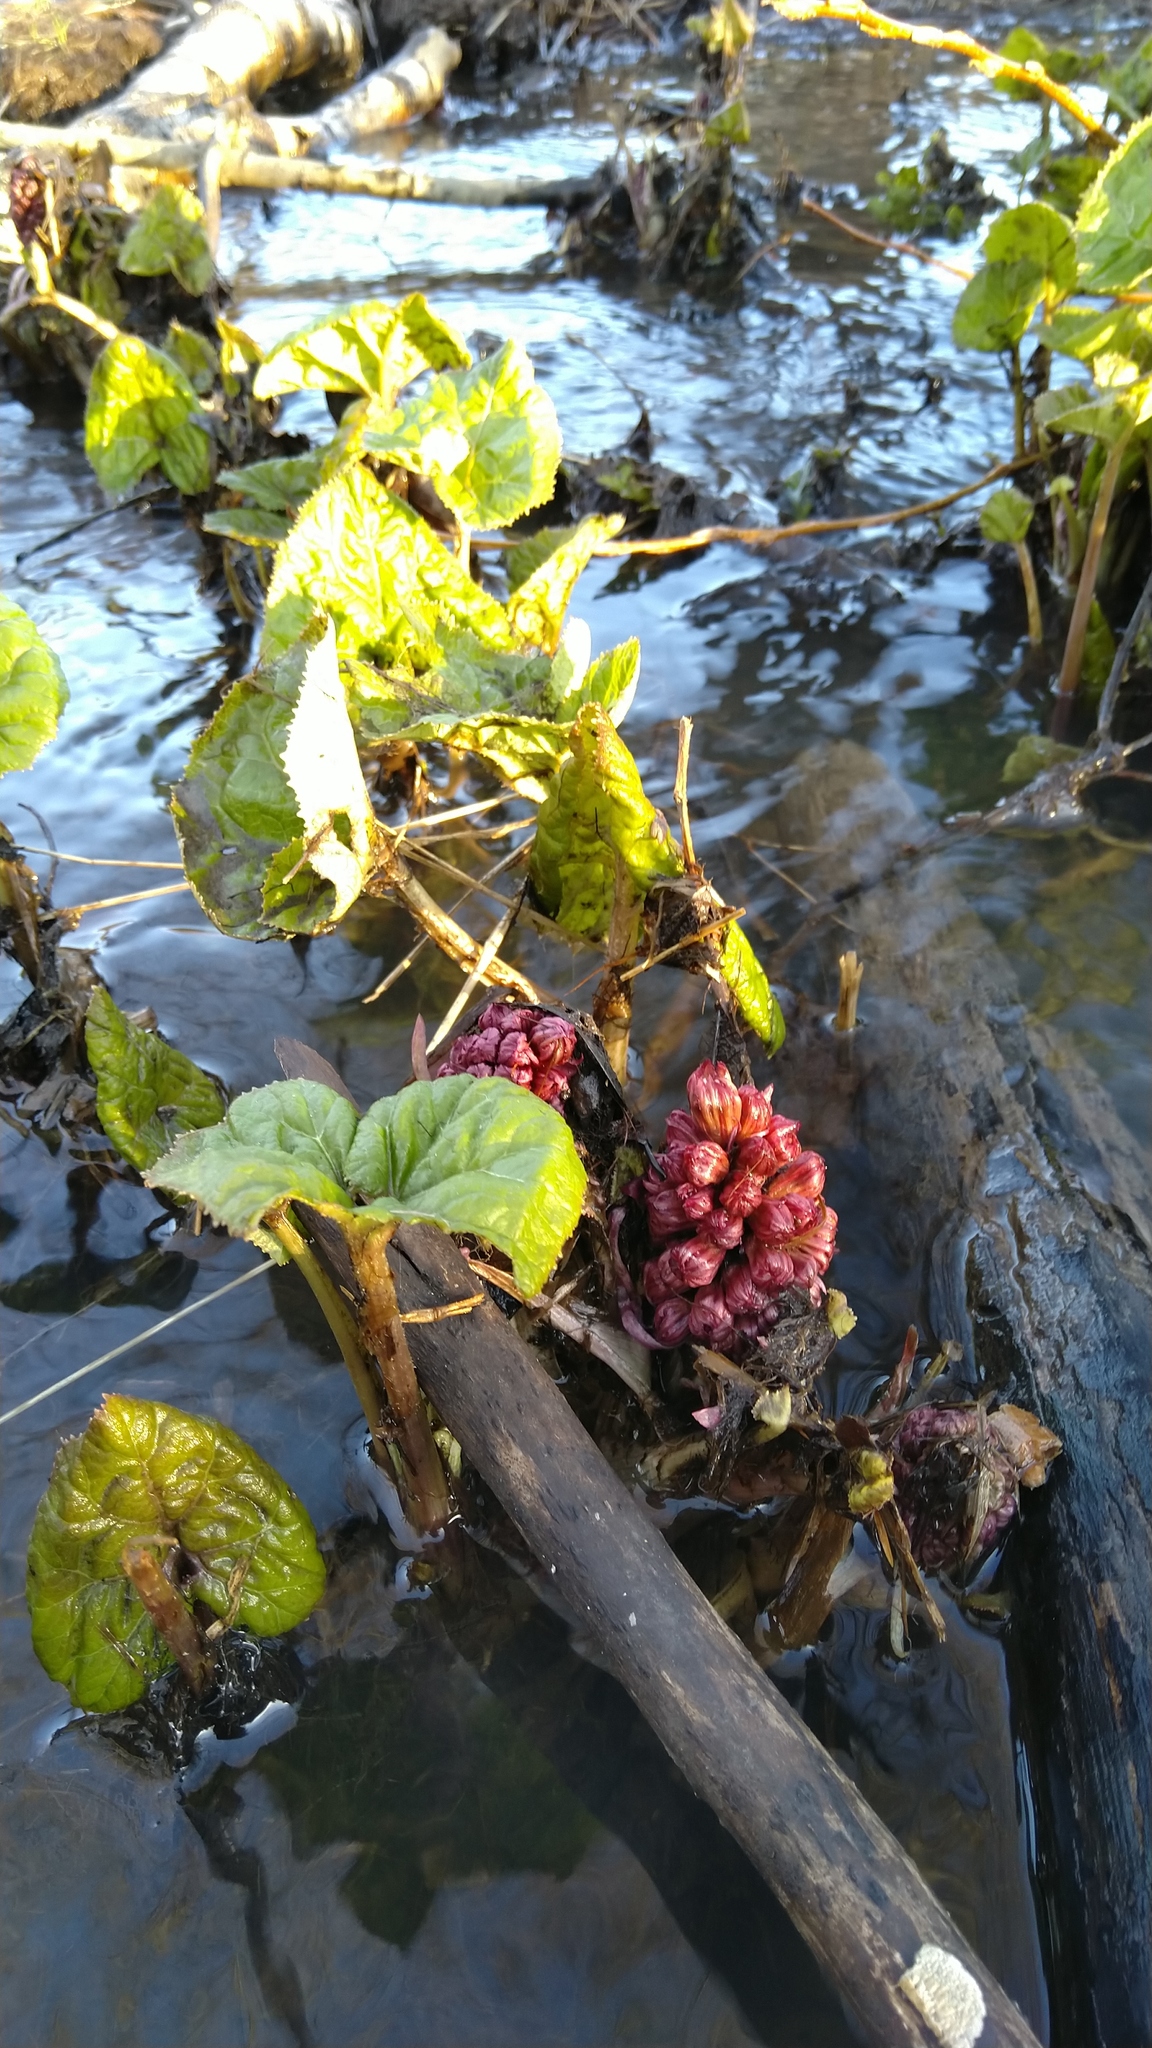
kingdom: Plantae
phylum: Tracheophyta
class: Magnoliopsida
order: Asterales
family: Asteraceae
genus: Petasites
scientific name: Petasites hybridus
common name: Butterbur
